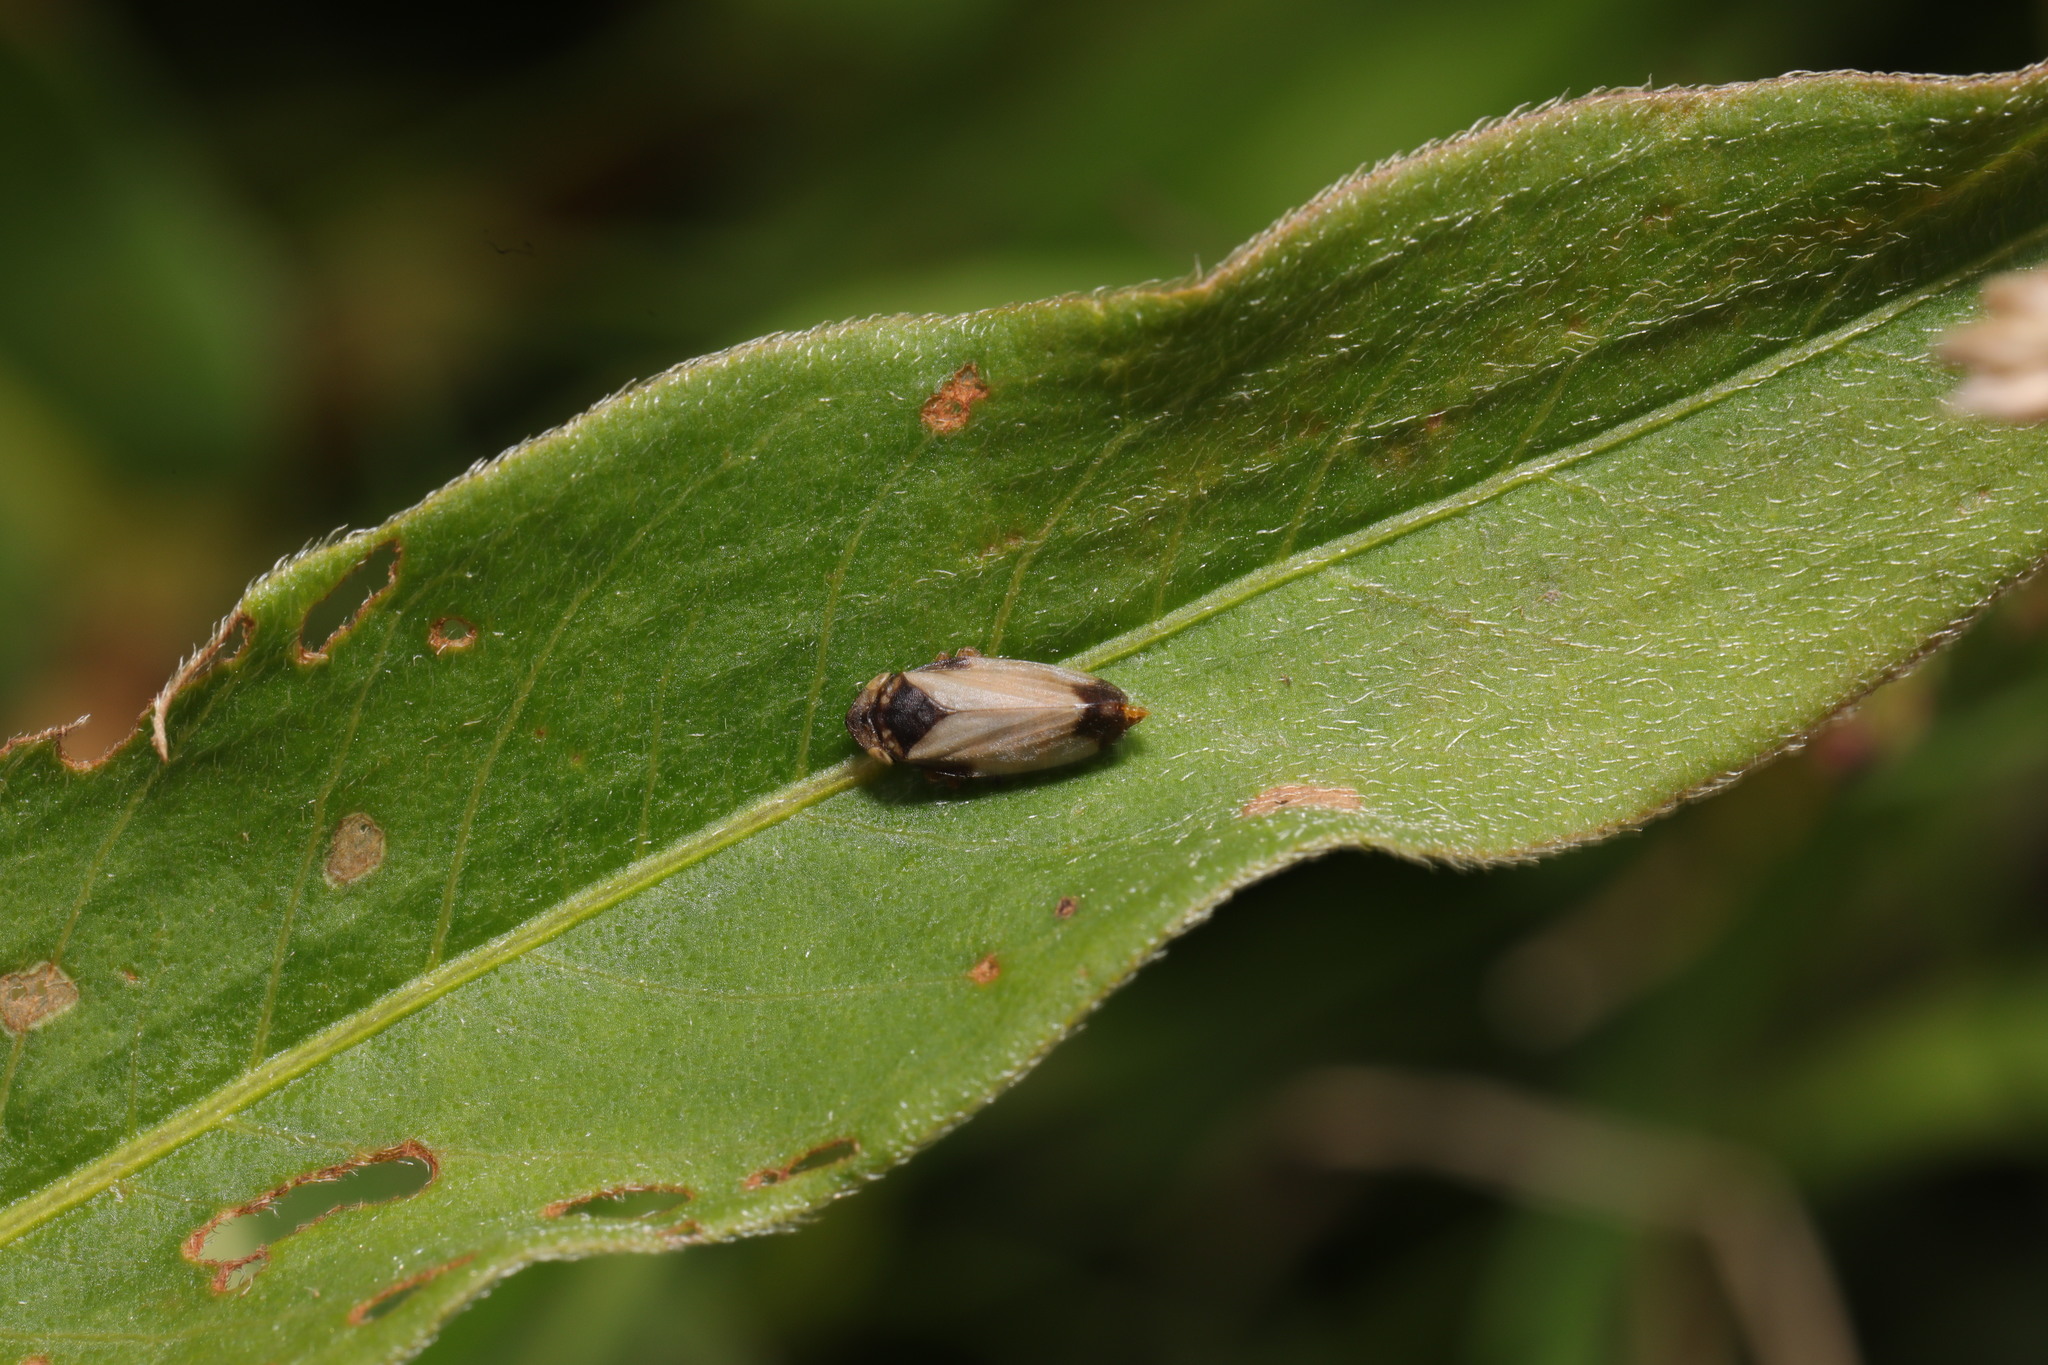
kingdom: Animalia
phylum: Arthropoda
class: Insecta
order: Hemiptera
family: Aphrophoridae
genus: Philaenus
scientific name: Philaenus spumarius
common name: Meadow spittlebug
